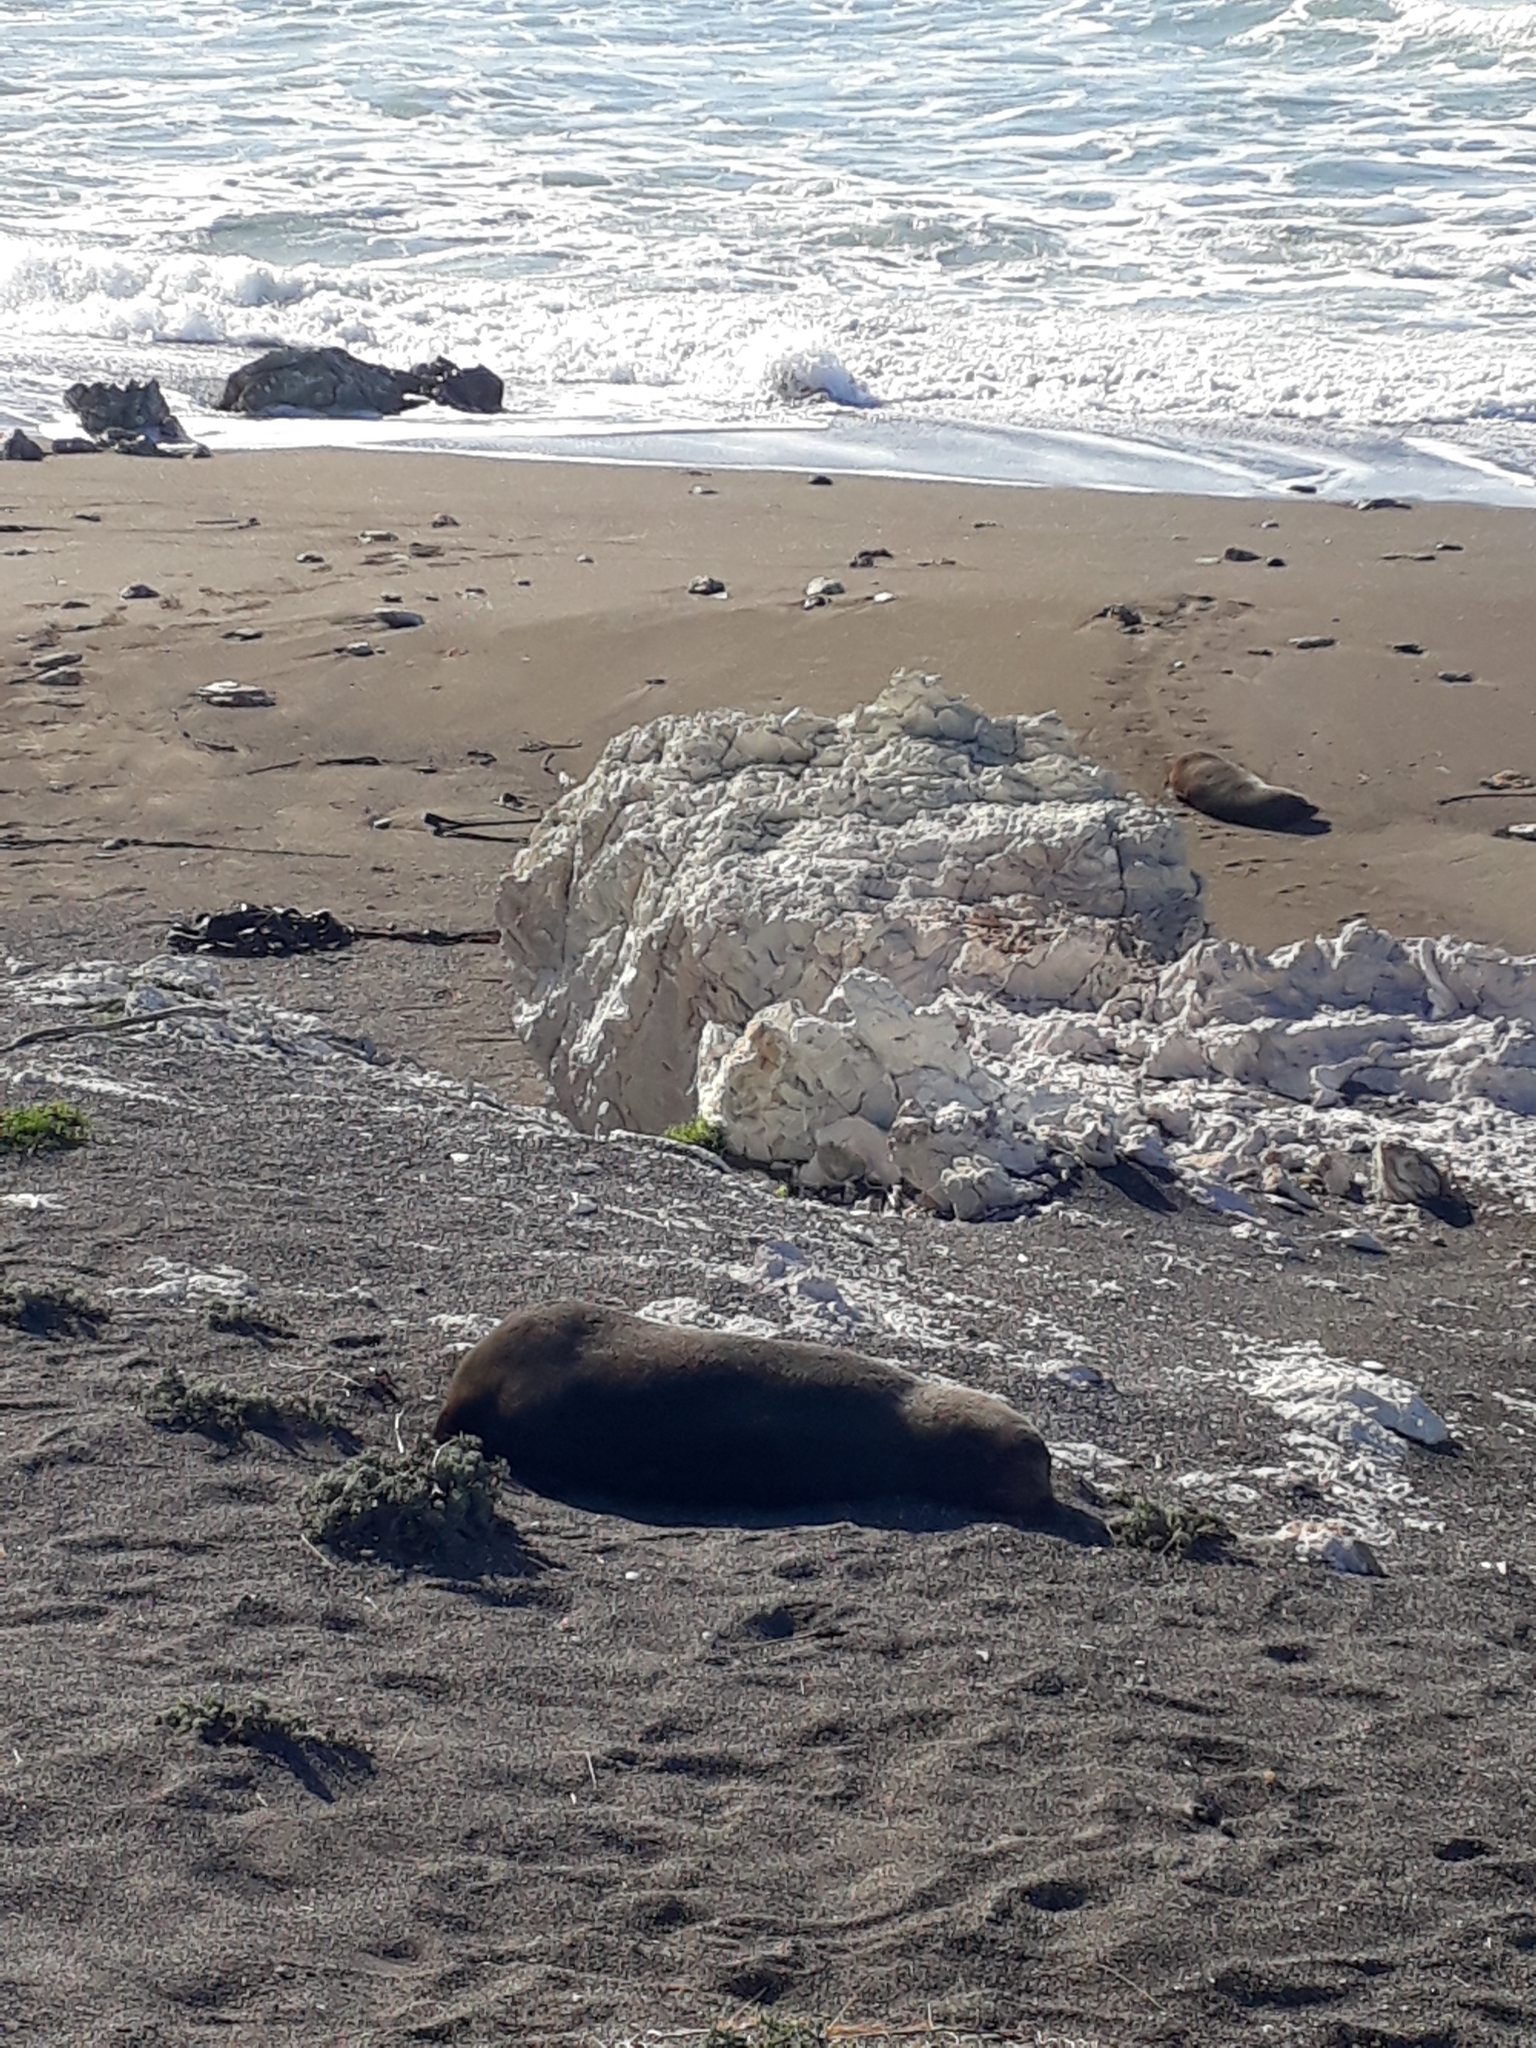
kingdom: Animalia
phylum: Chordata
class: Mammalia
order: Carnivora
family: Otariidae
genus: Arctocephalus
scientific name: Arctocephalus forsteri
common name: New zealand fur seal
